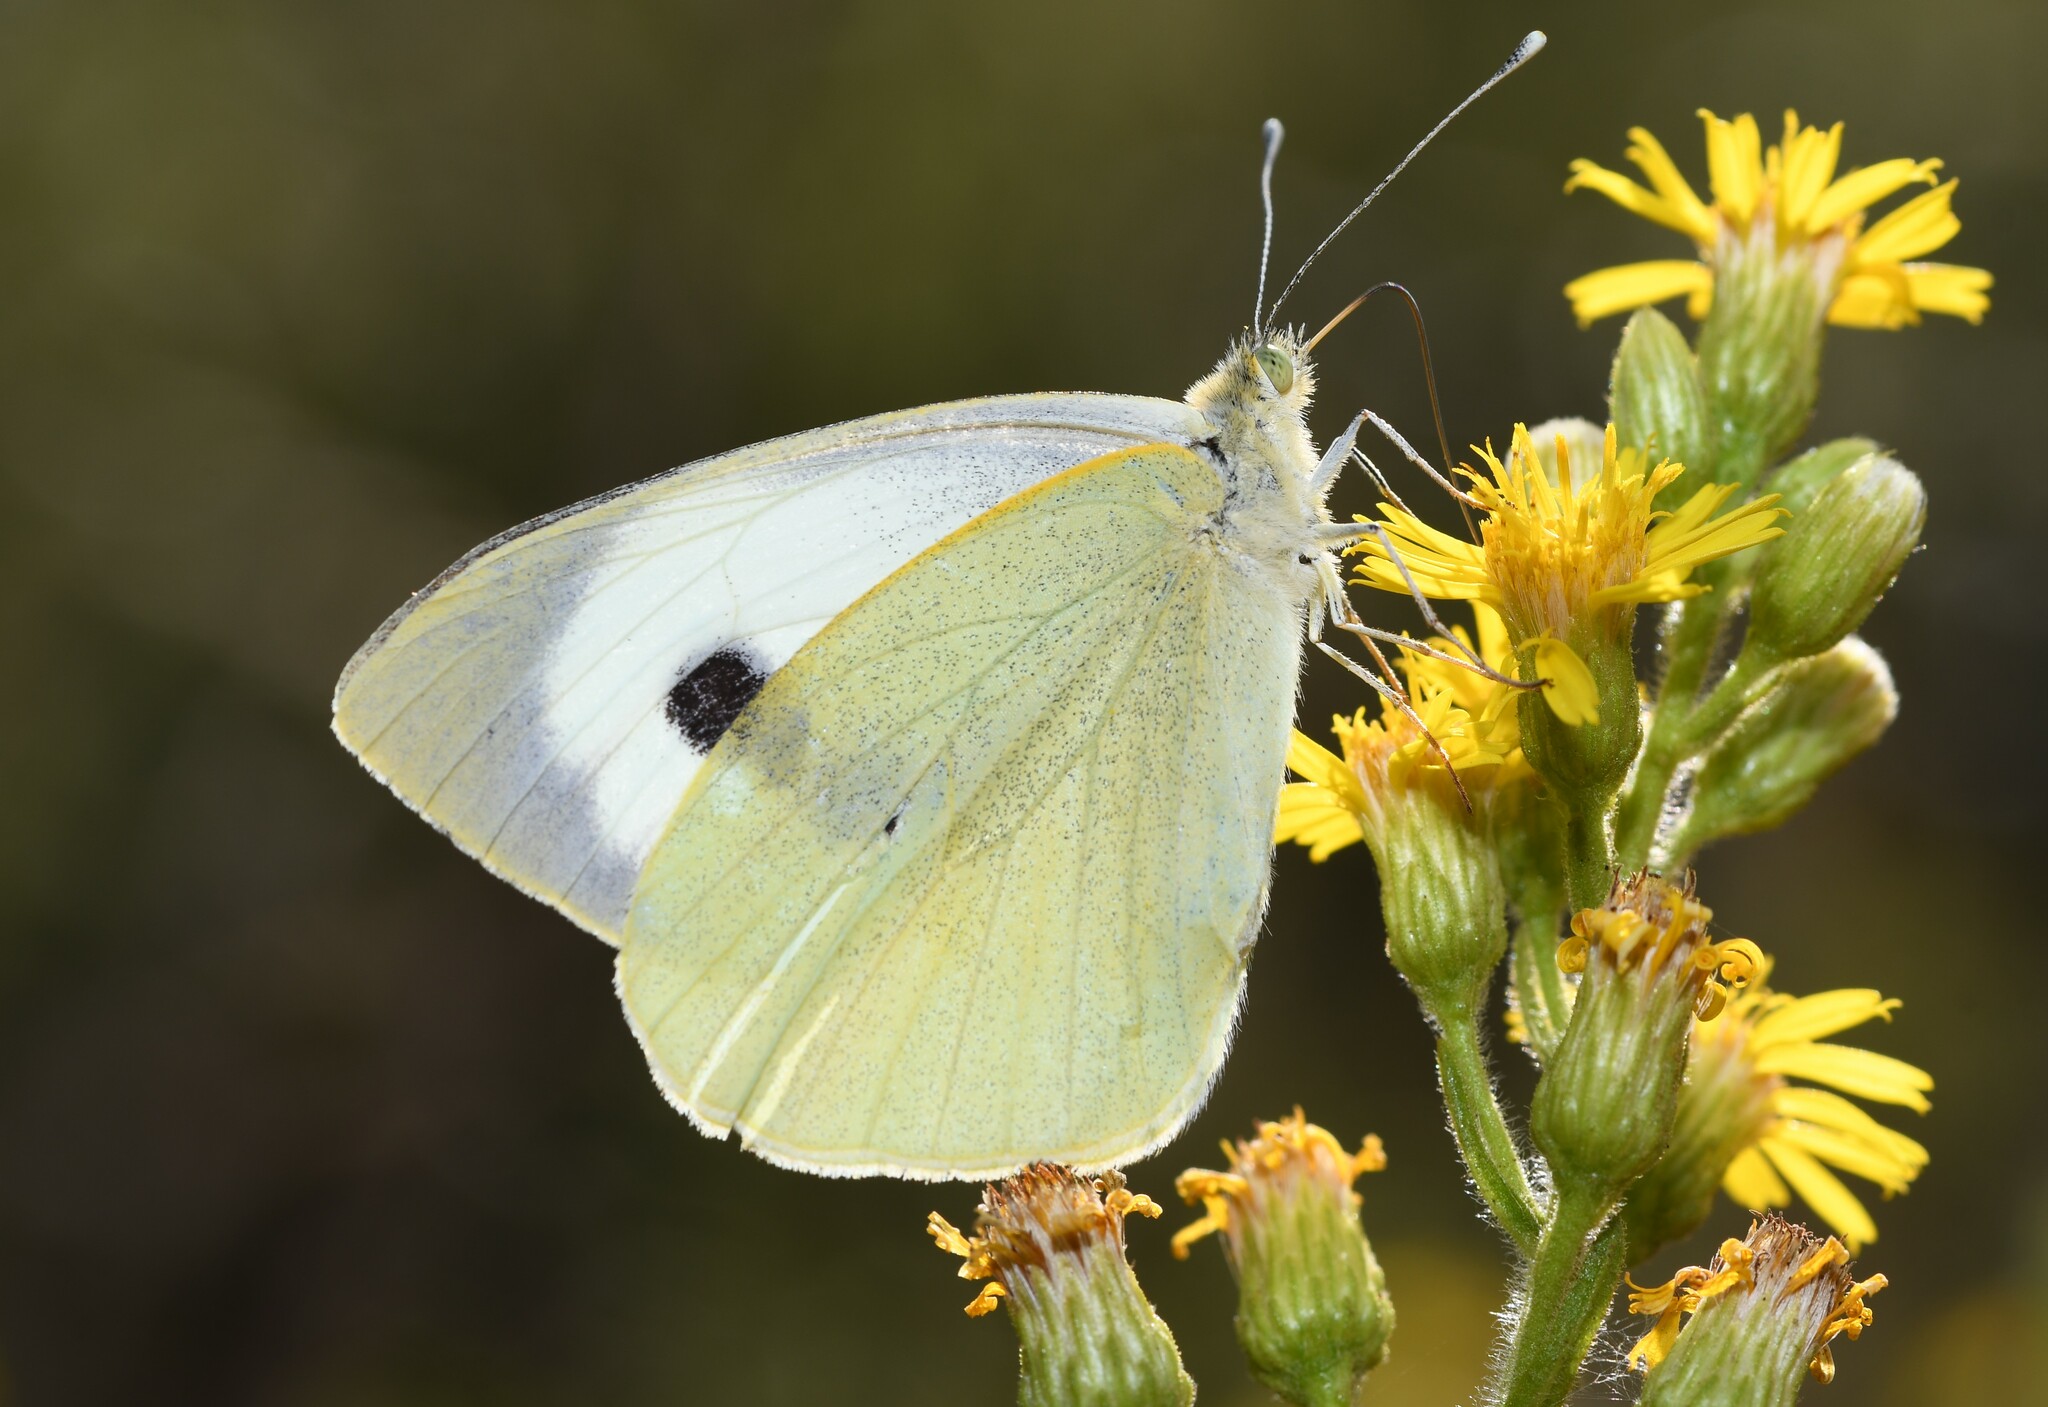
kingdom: Animalia
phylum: Arthropoda
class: Insecta
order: Lepidoptera
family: Pieridae
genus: Pieris
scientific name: Pieris brassicae
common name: Large white
